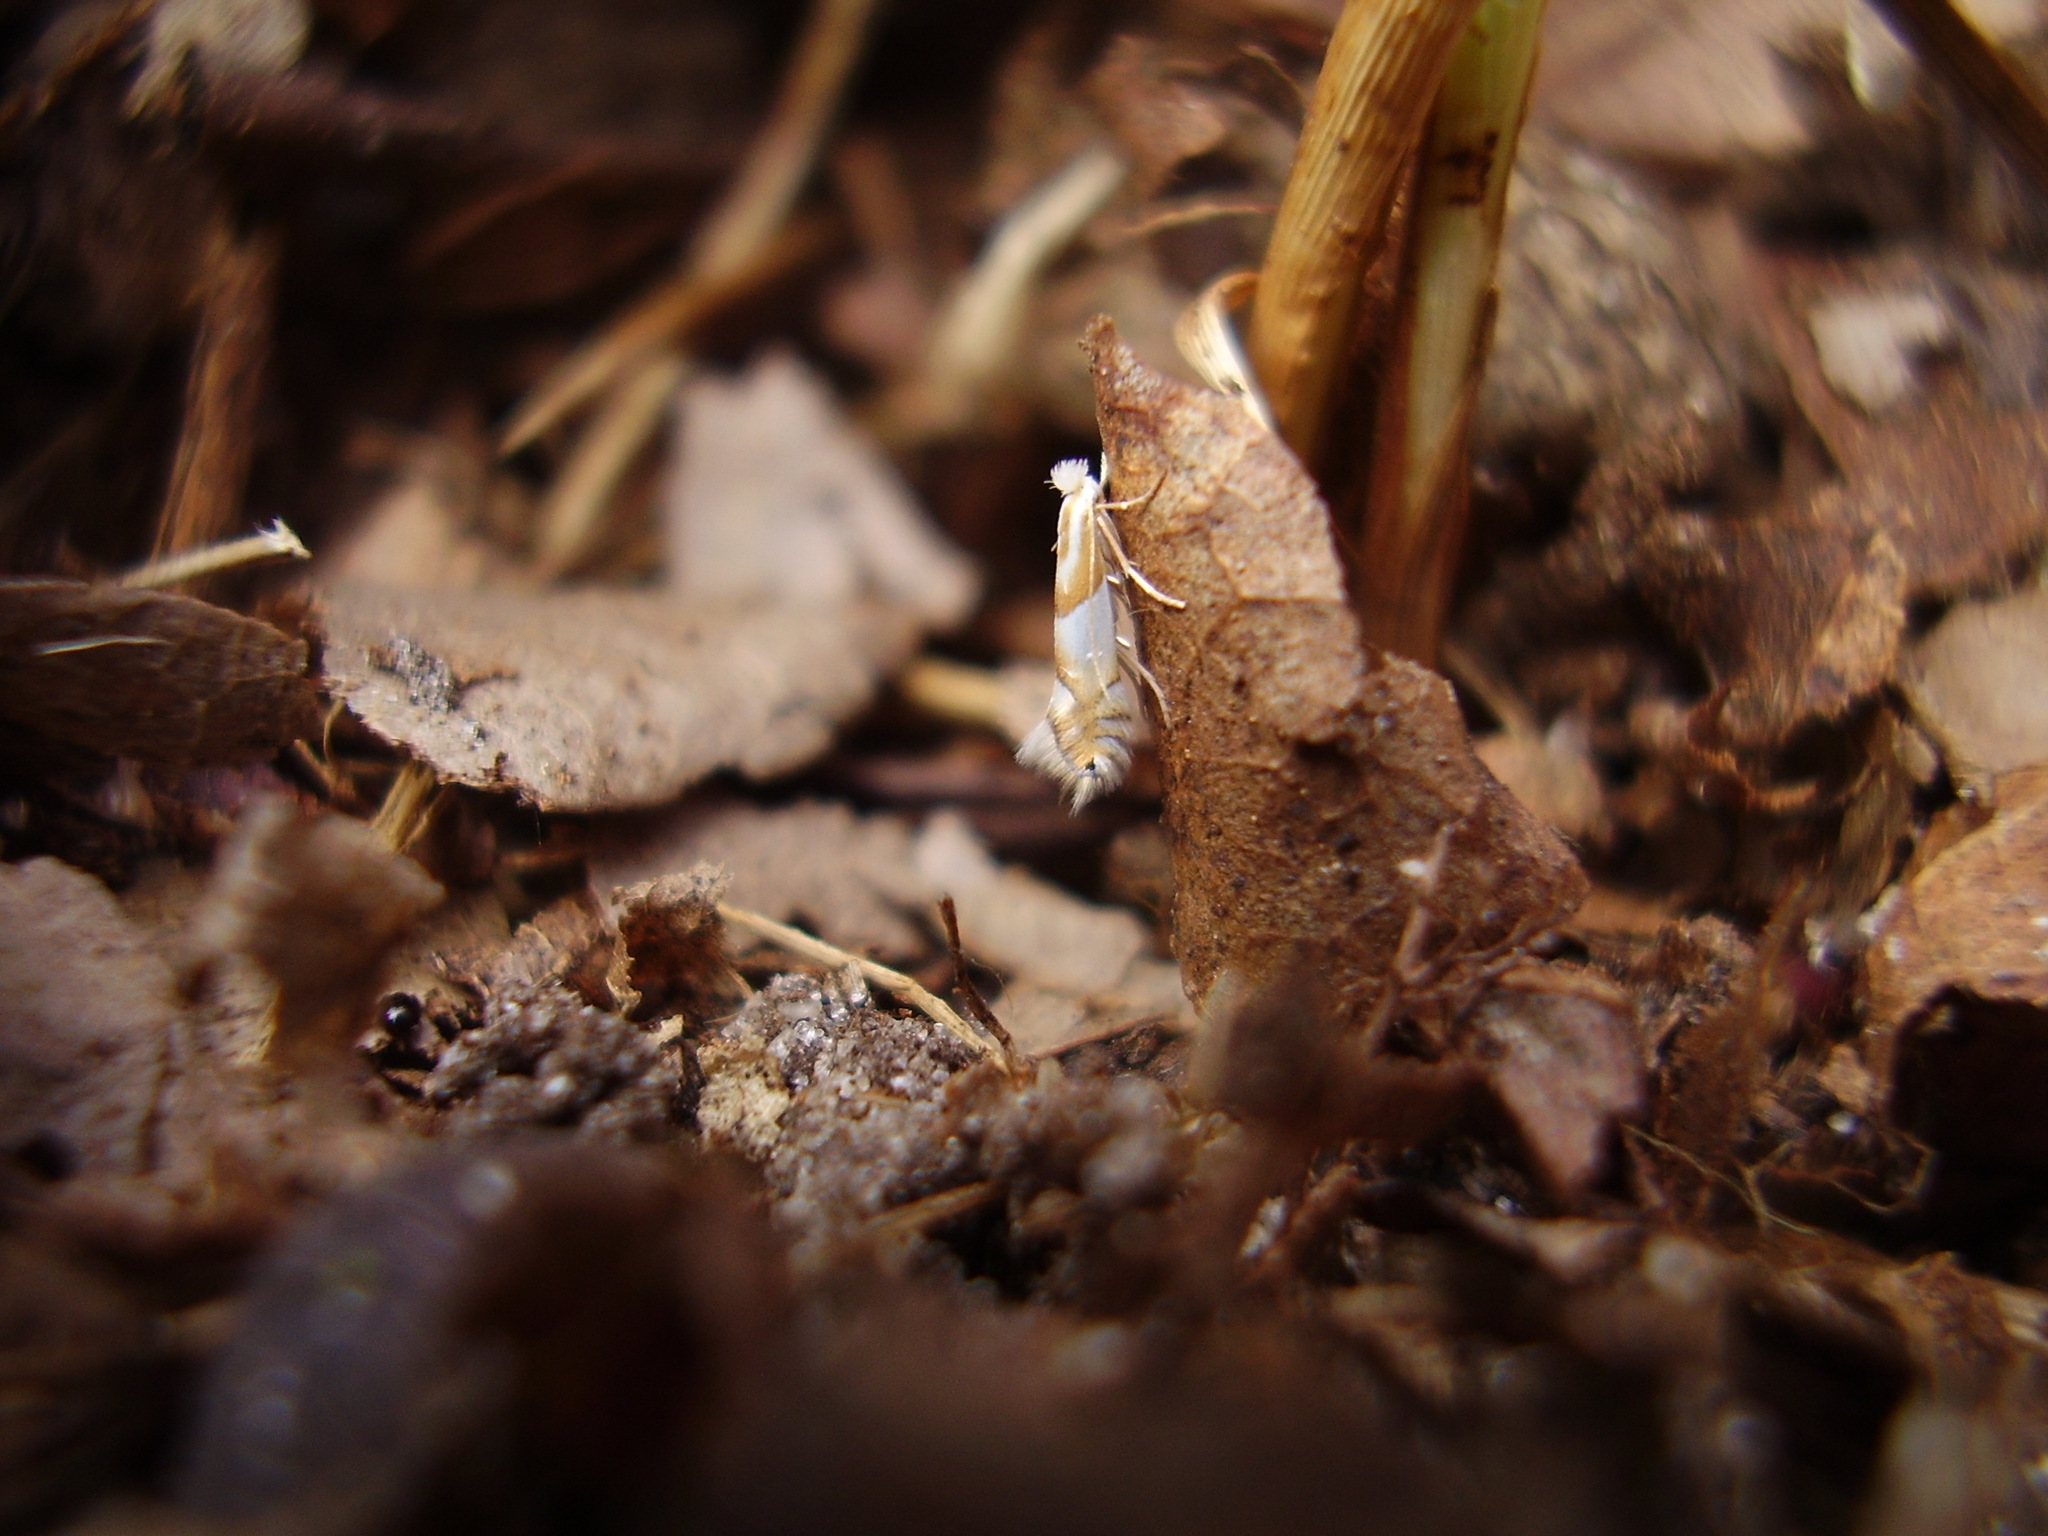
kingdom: Animalia
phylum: Arthropoda
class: Insecta
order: Lepidoptera
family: Gracillariidae
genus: Phyllonorycter
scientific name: Phyllonorycter roboris
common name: Gold-bent midget
